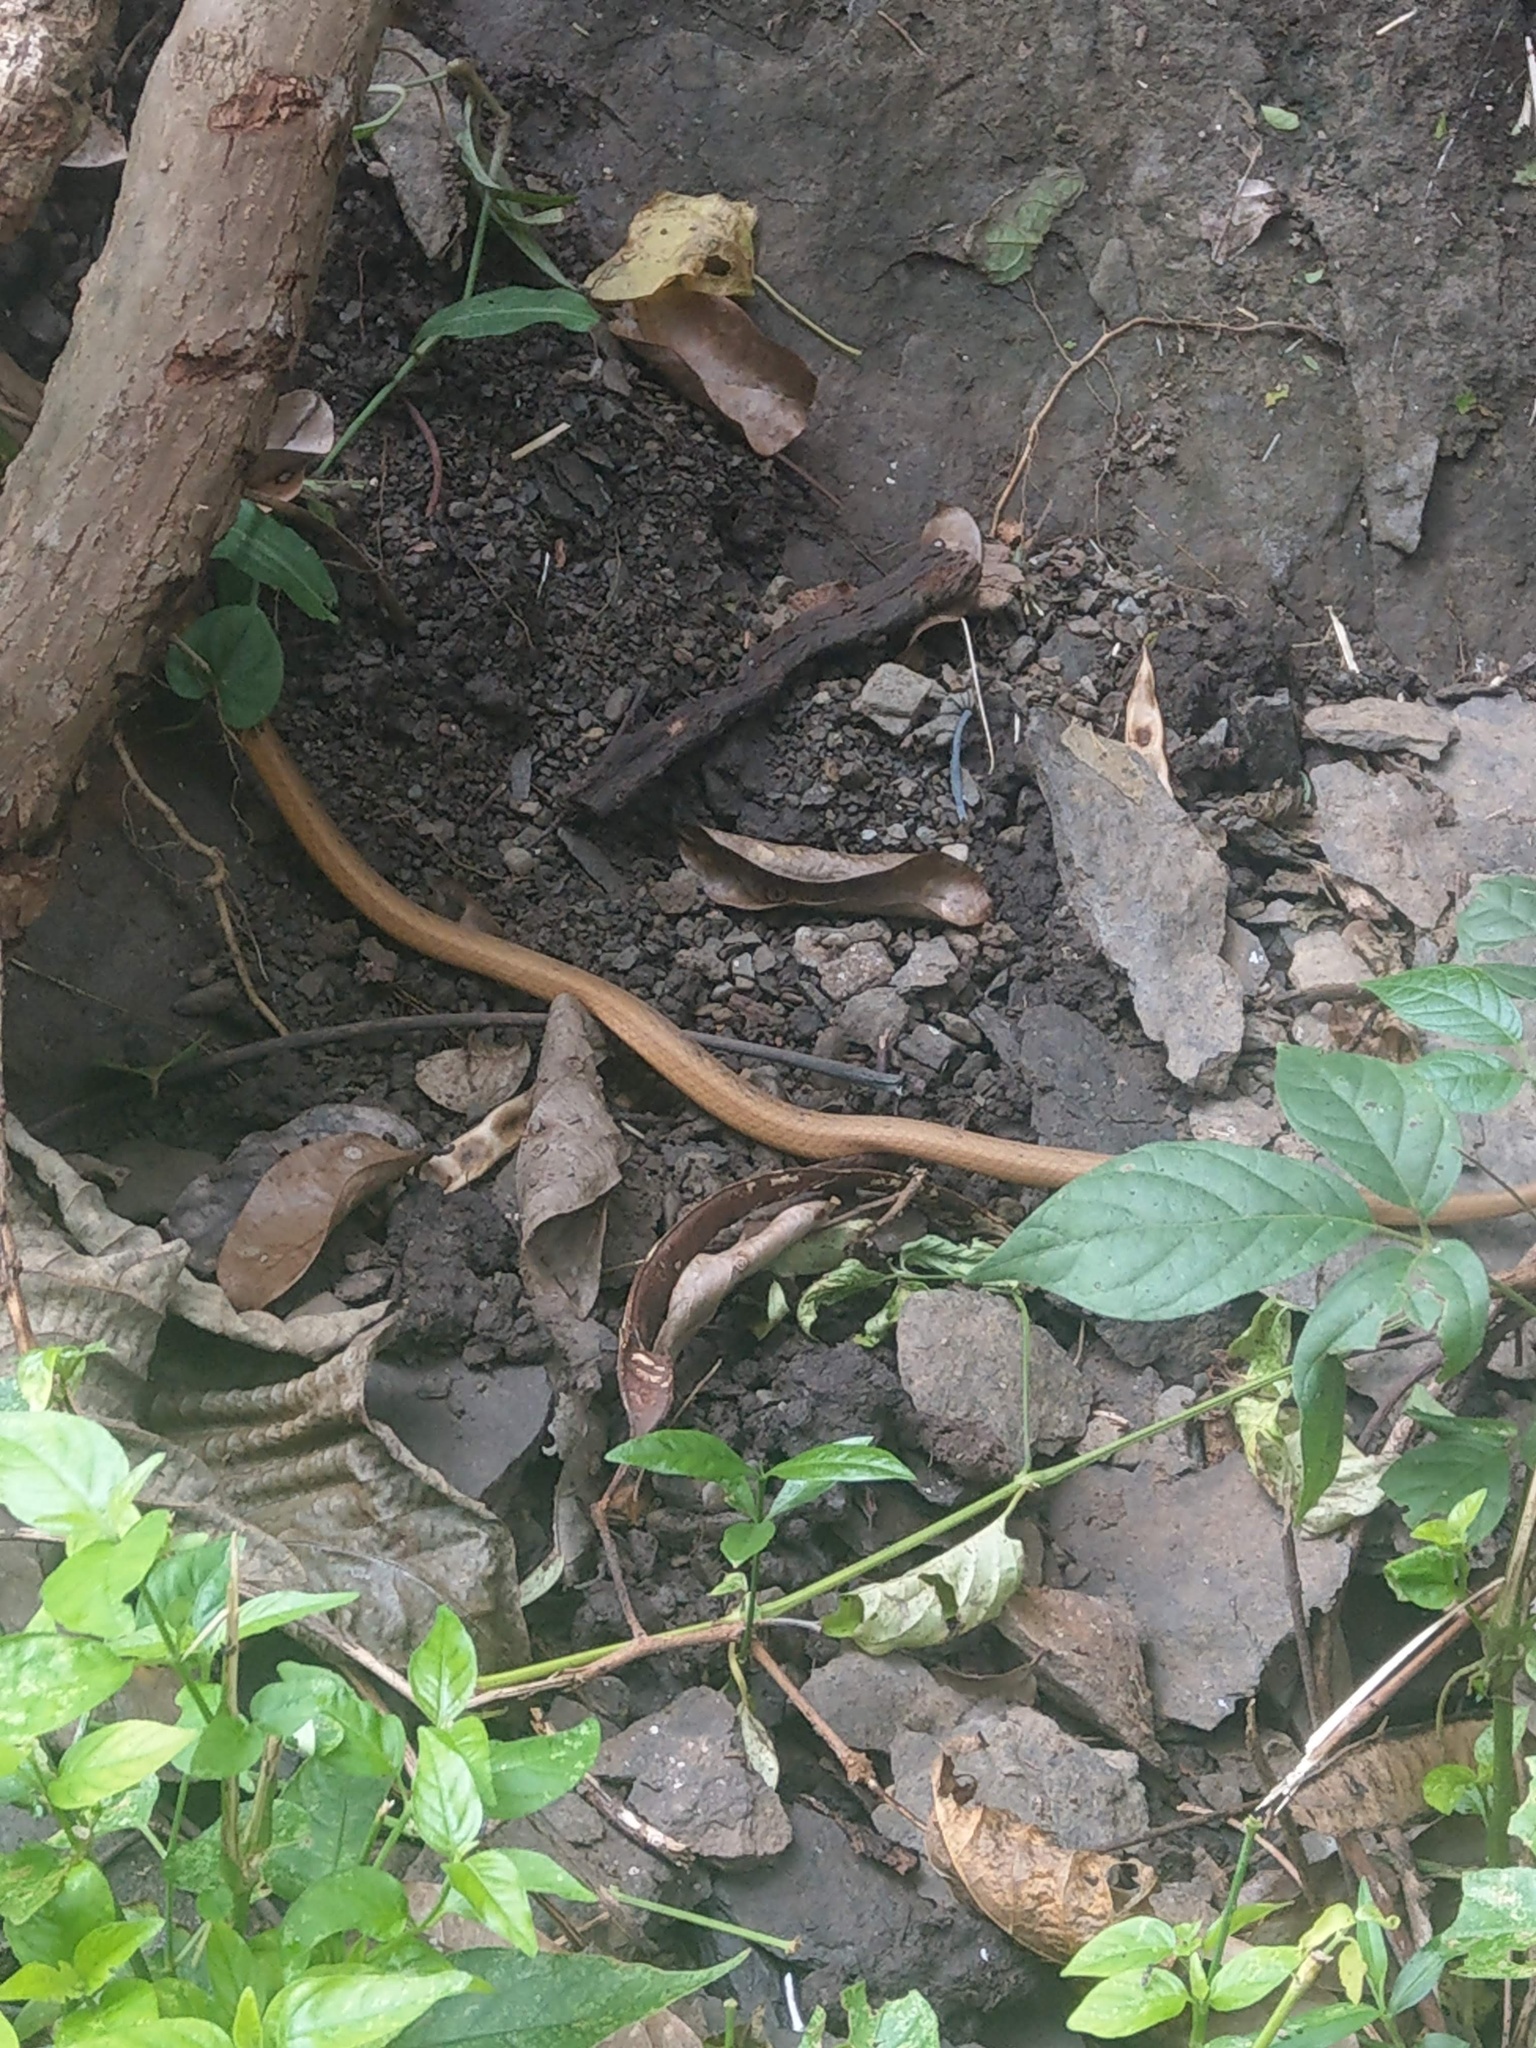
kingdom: Animalia
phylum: Chordata
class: Squamata
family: Pseudaspididae
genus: Psammodynastes
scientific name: Psammodynastes pulverulentus
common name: Common mock viper
